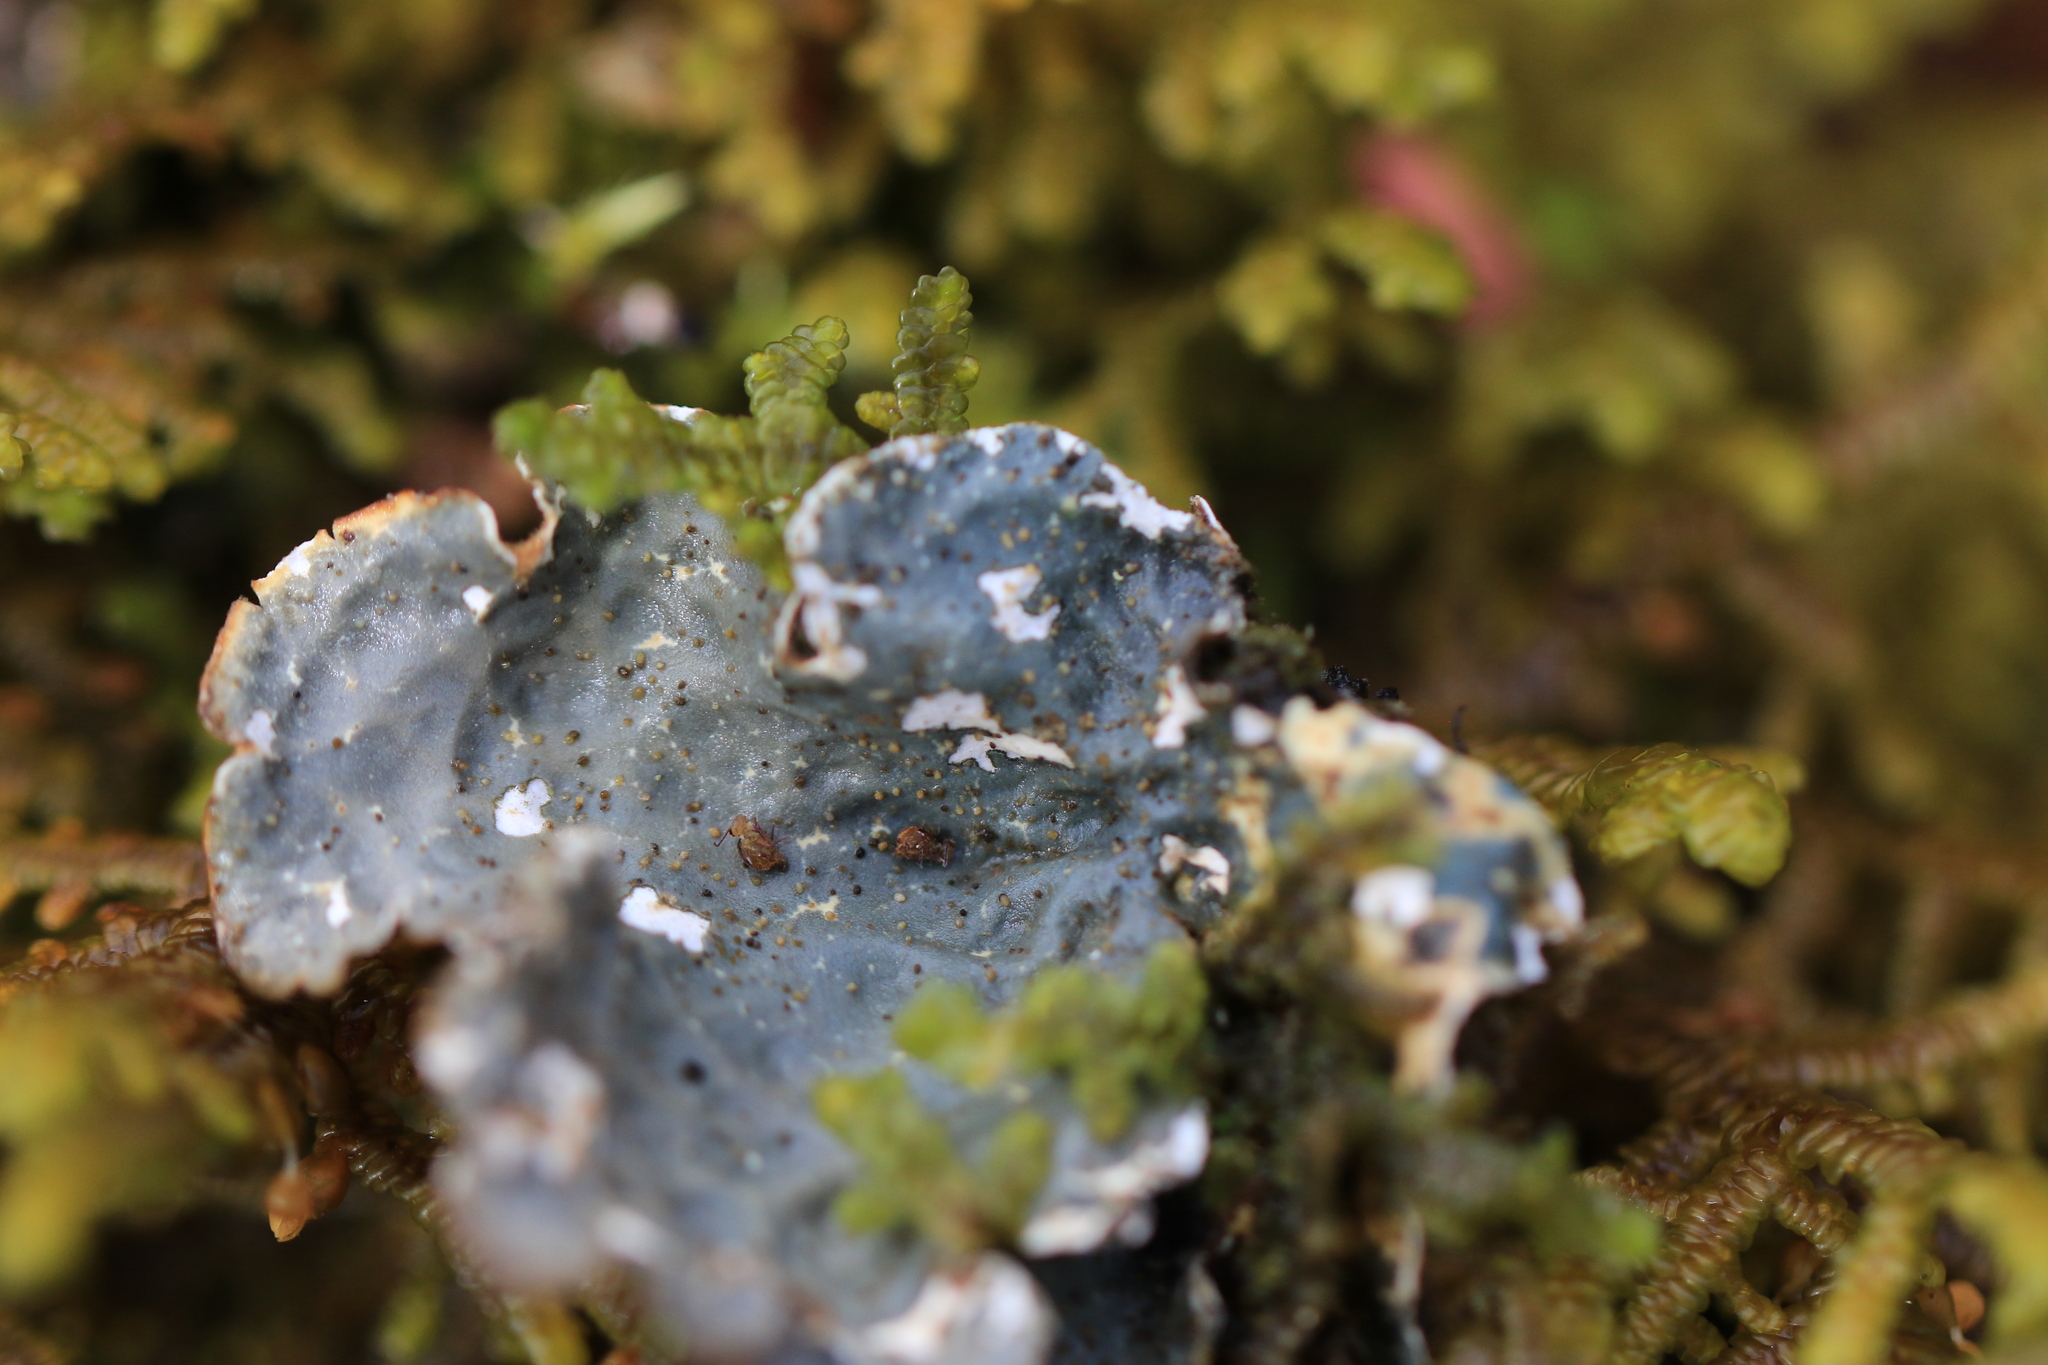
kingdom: Fungi
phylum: Ascomycota
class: Lecanoromycetes
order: Peltigerales
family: Lobariaceae
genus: Lobarina
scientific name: Lobarina scrobiculata
